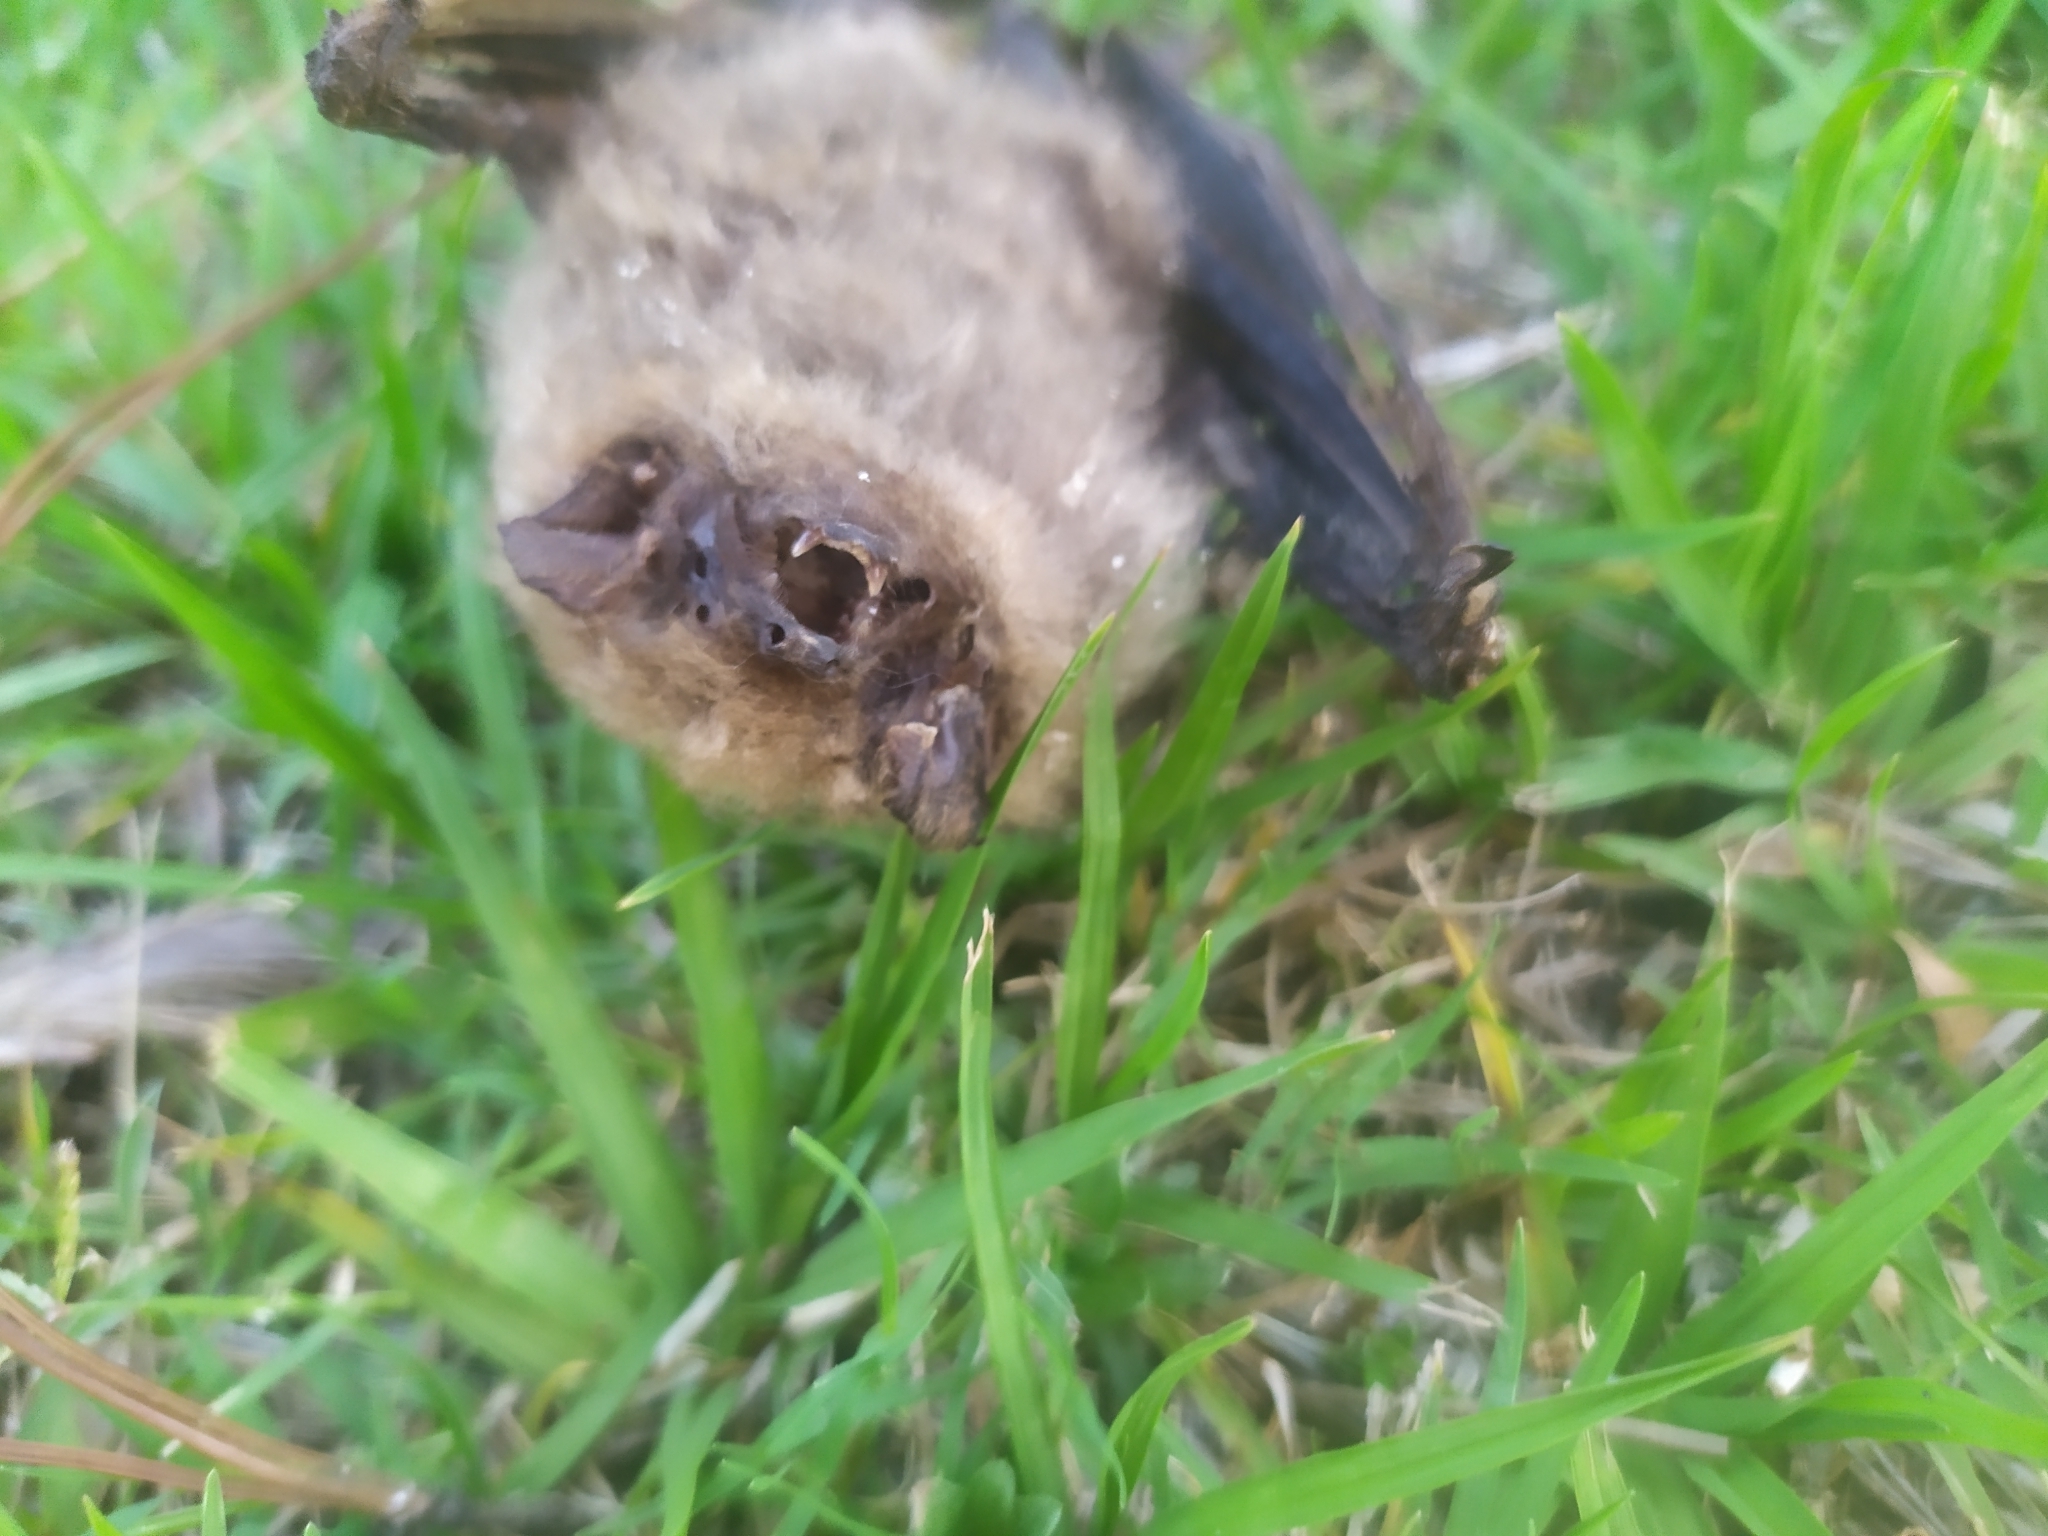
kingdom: Animalia
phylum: Chordata
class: Mammalia
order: Chiroptera
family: Vespertilionidae
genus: Dasypterus
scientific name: Dasypterus ega
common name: Southern yellow bat
